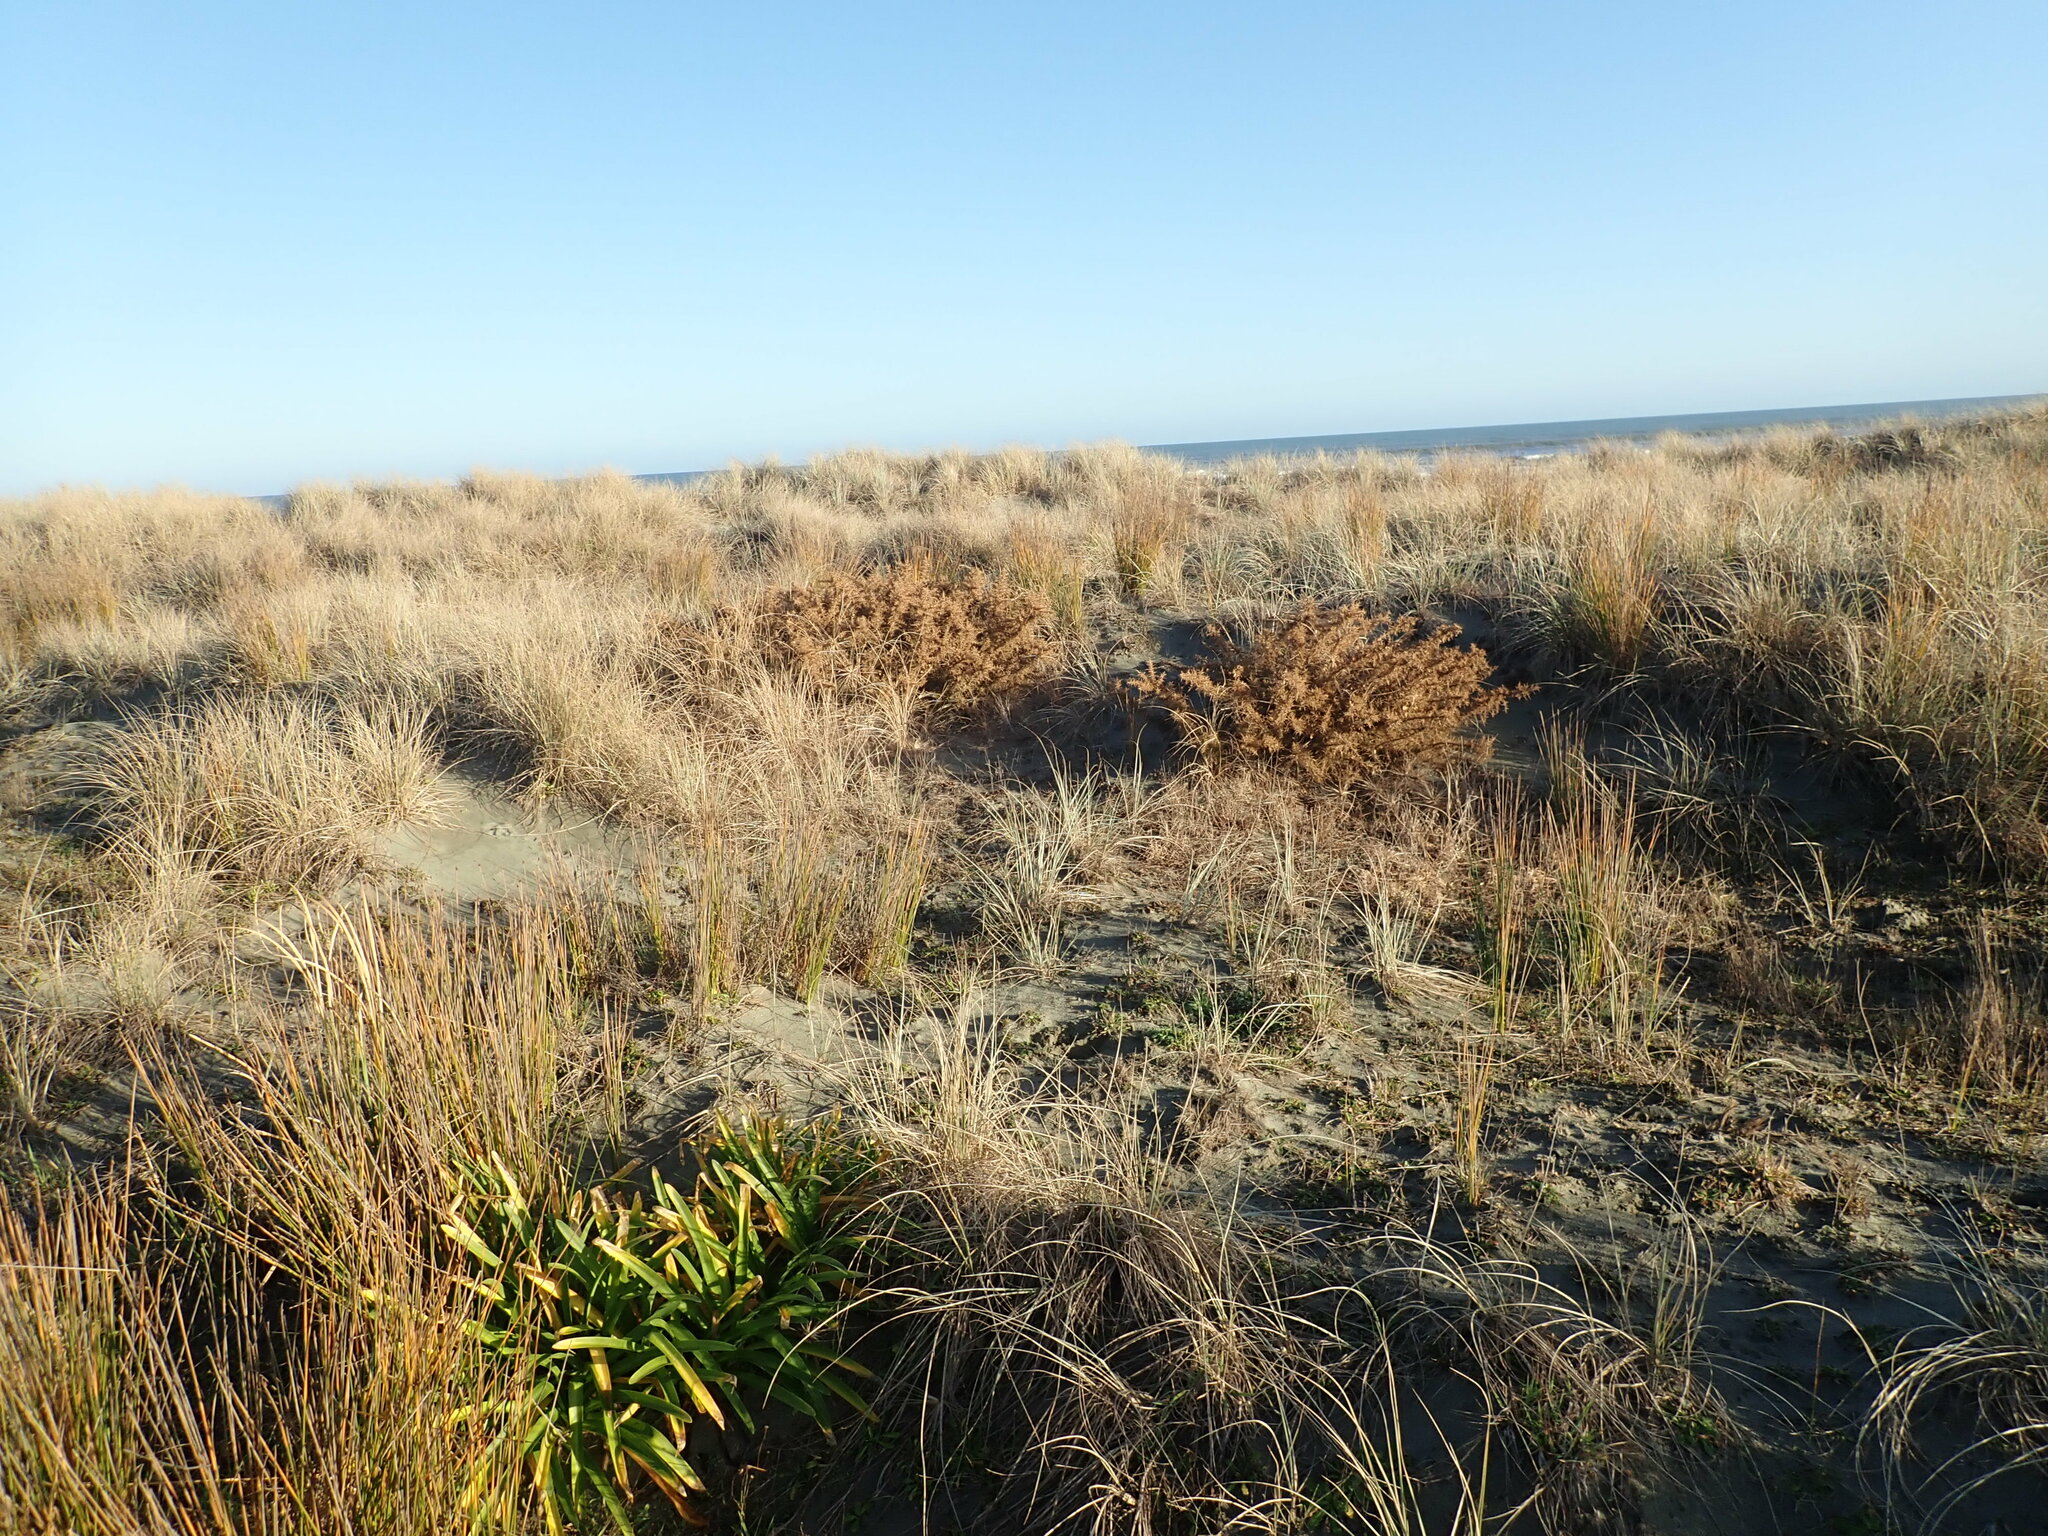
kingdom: Plantae
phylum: Tracheophyta
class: Magnoliopsida
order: Fabales
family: Fabaceae
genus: Ulex
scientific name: Ulex europaeus
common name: Common gorse
